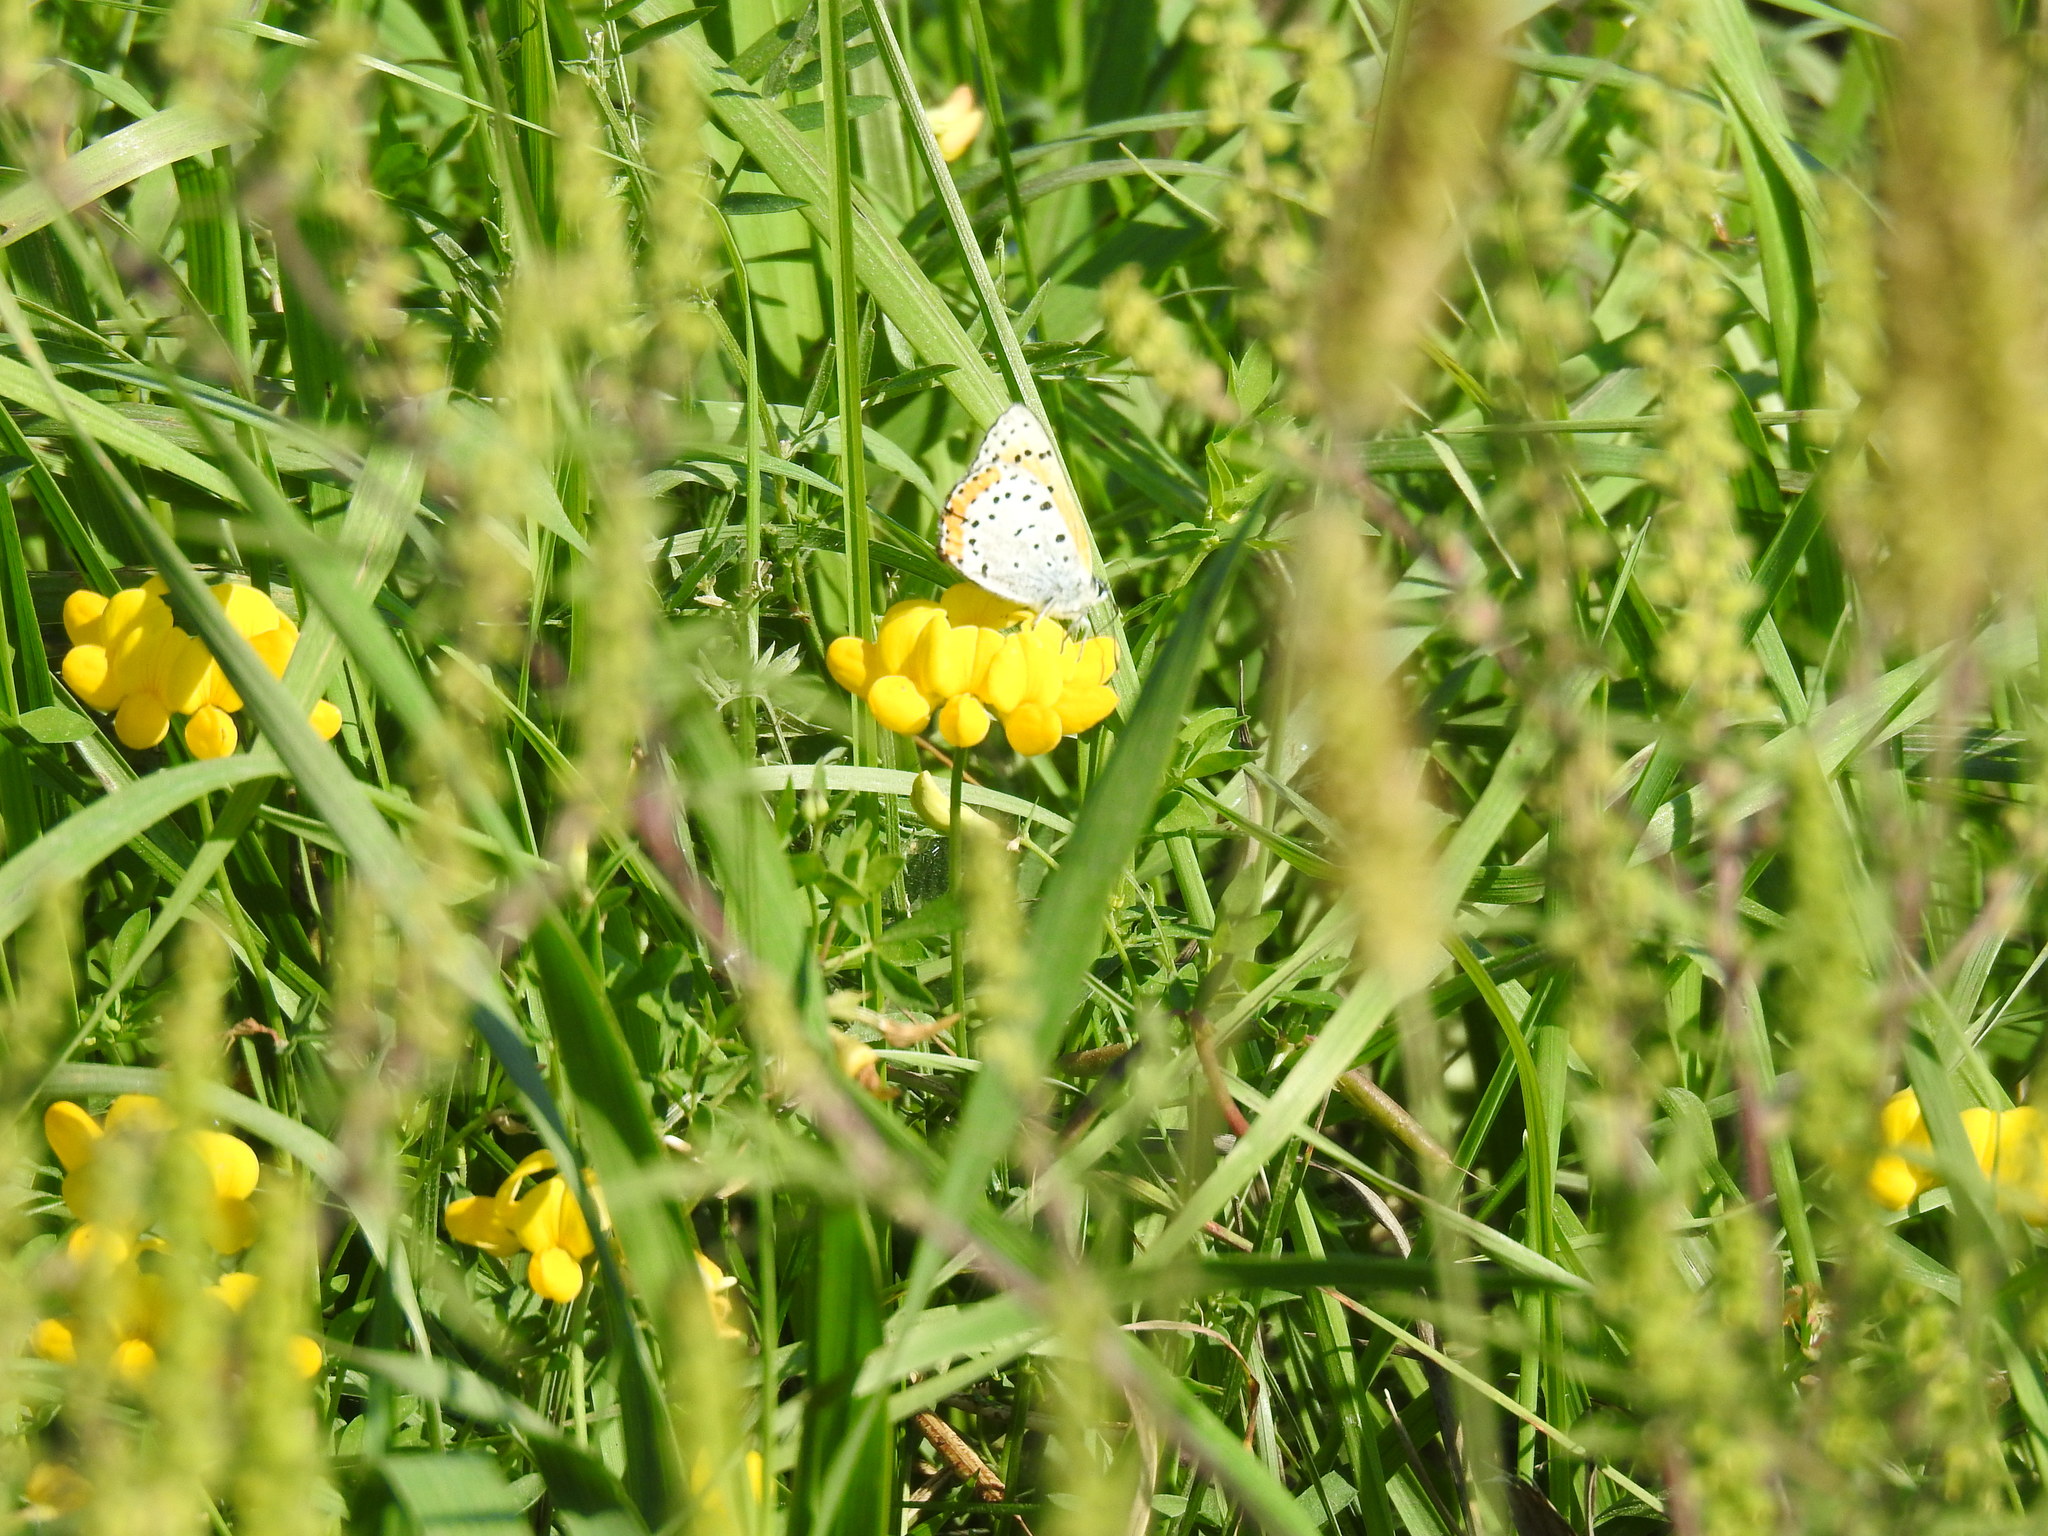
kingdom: Animalia
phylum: Arthropoda
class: Insecta
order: Lepidoptera
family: Lycaenidae
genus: Tharsalea
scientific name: Tharsalea hyllus
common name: Bronze copper
